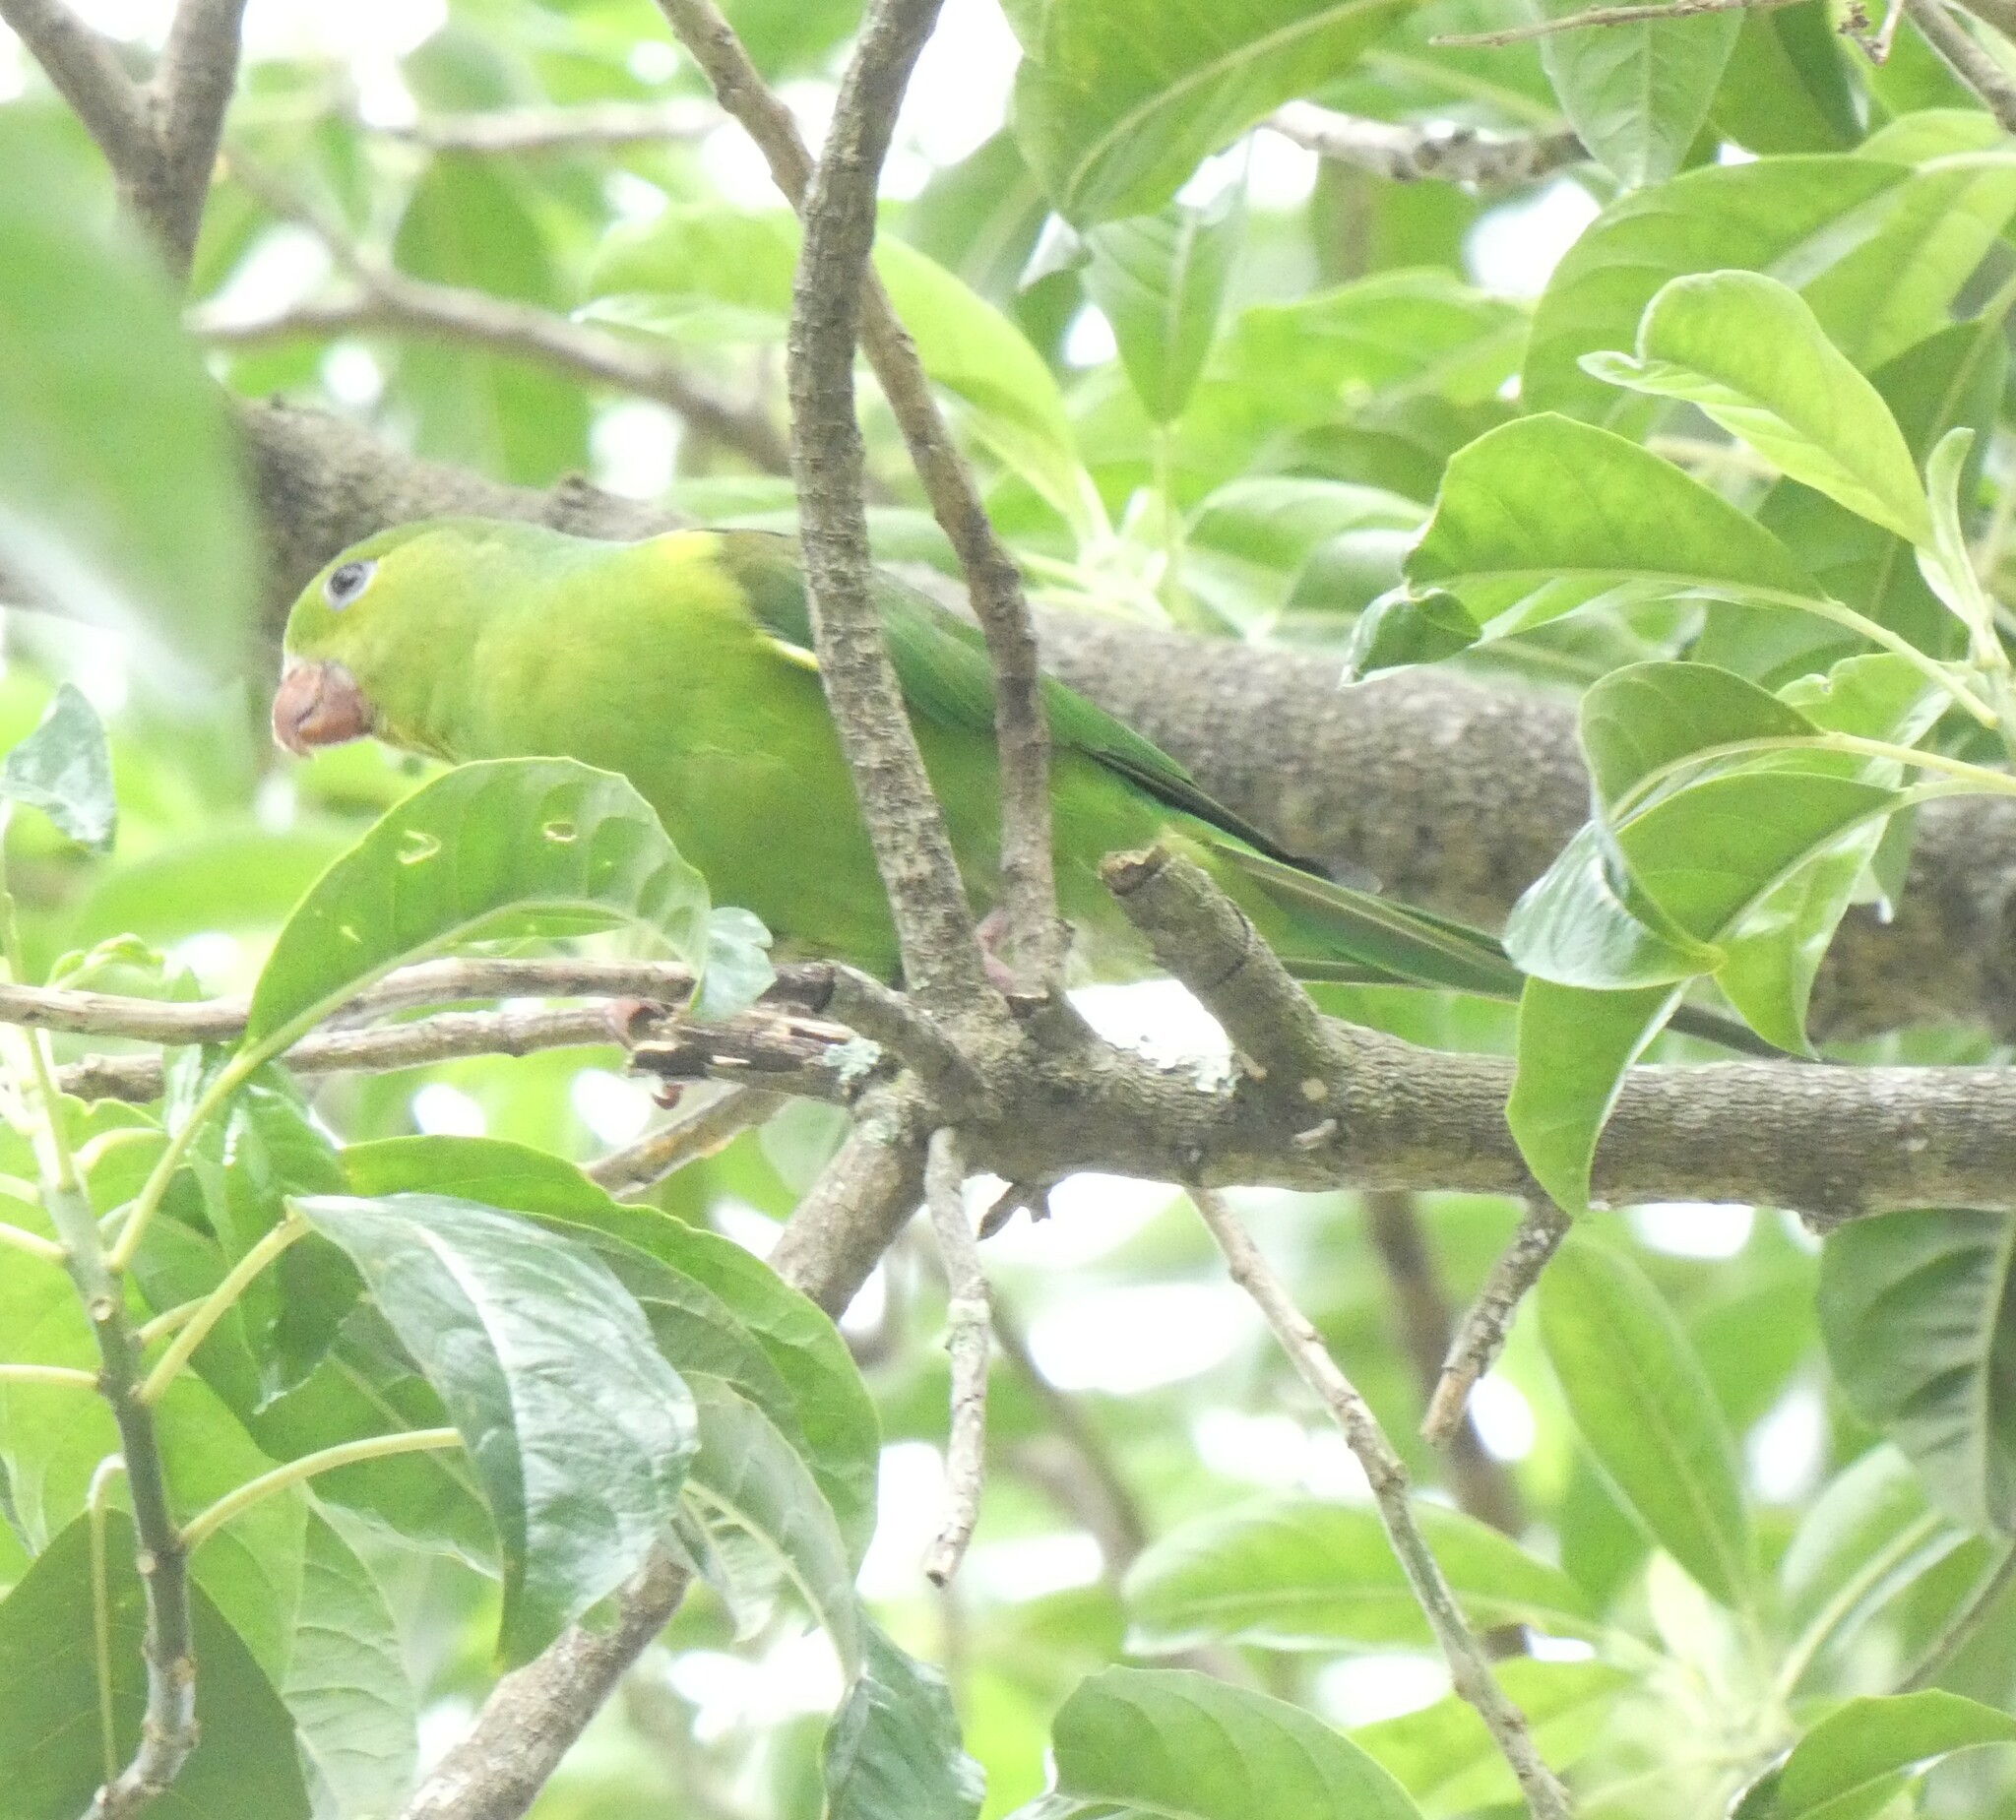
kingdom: Animalia
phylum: Chordata
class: Aves
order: Psittaciformes
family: Psittacidae
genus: Brotogeris
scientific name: Brotogeris tirica
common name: Plain parakeet
